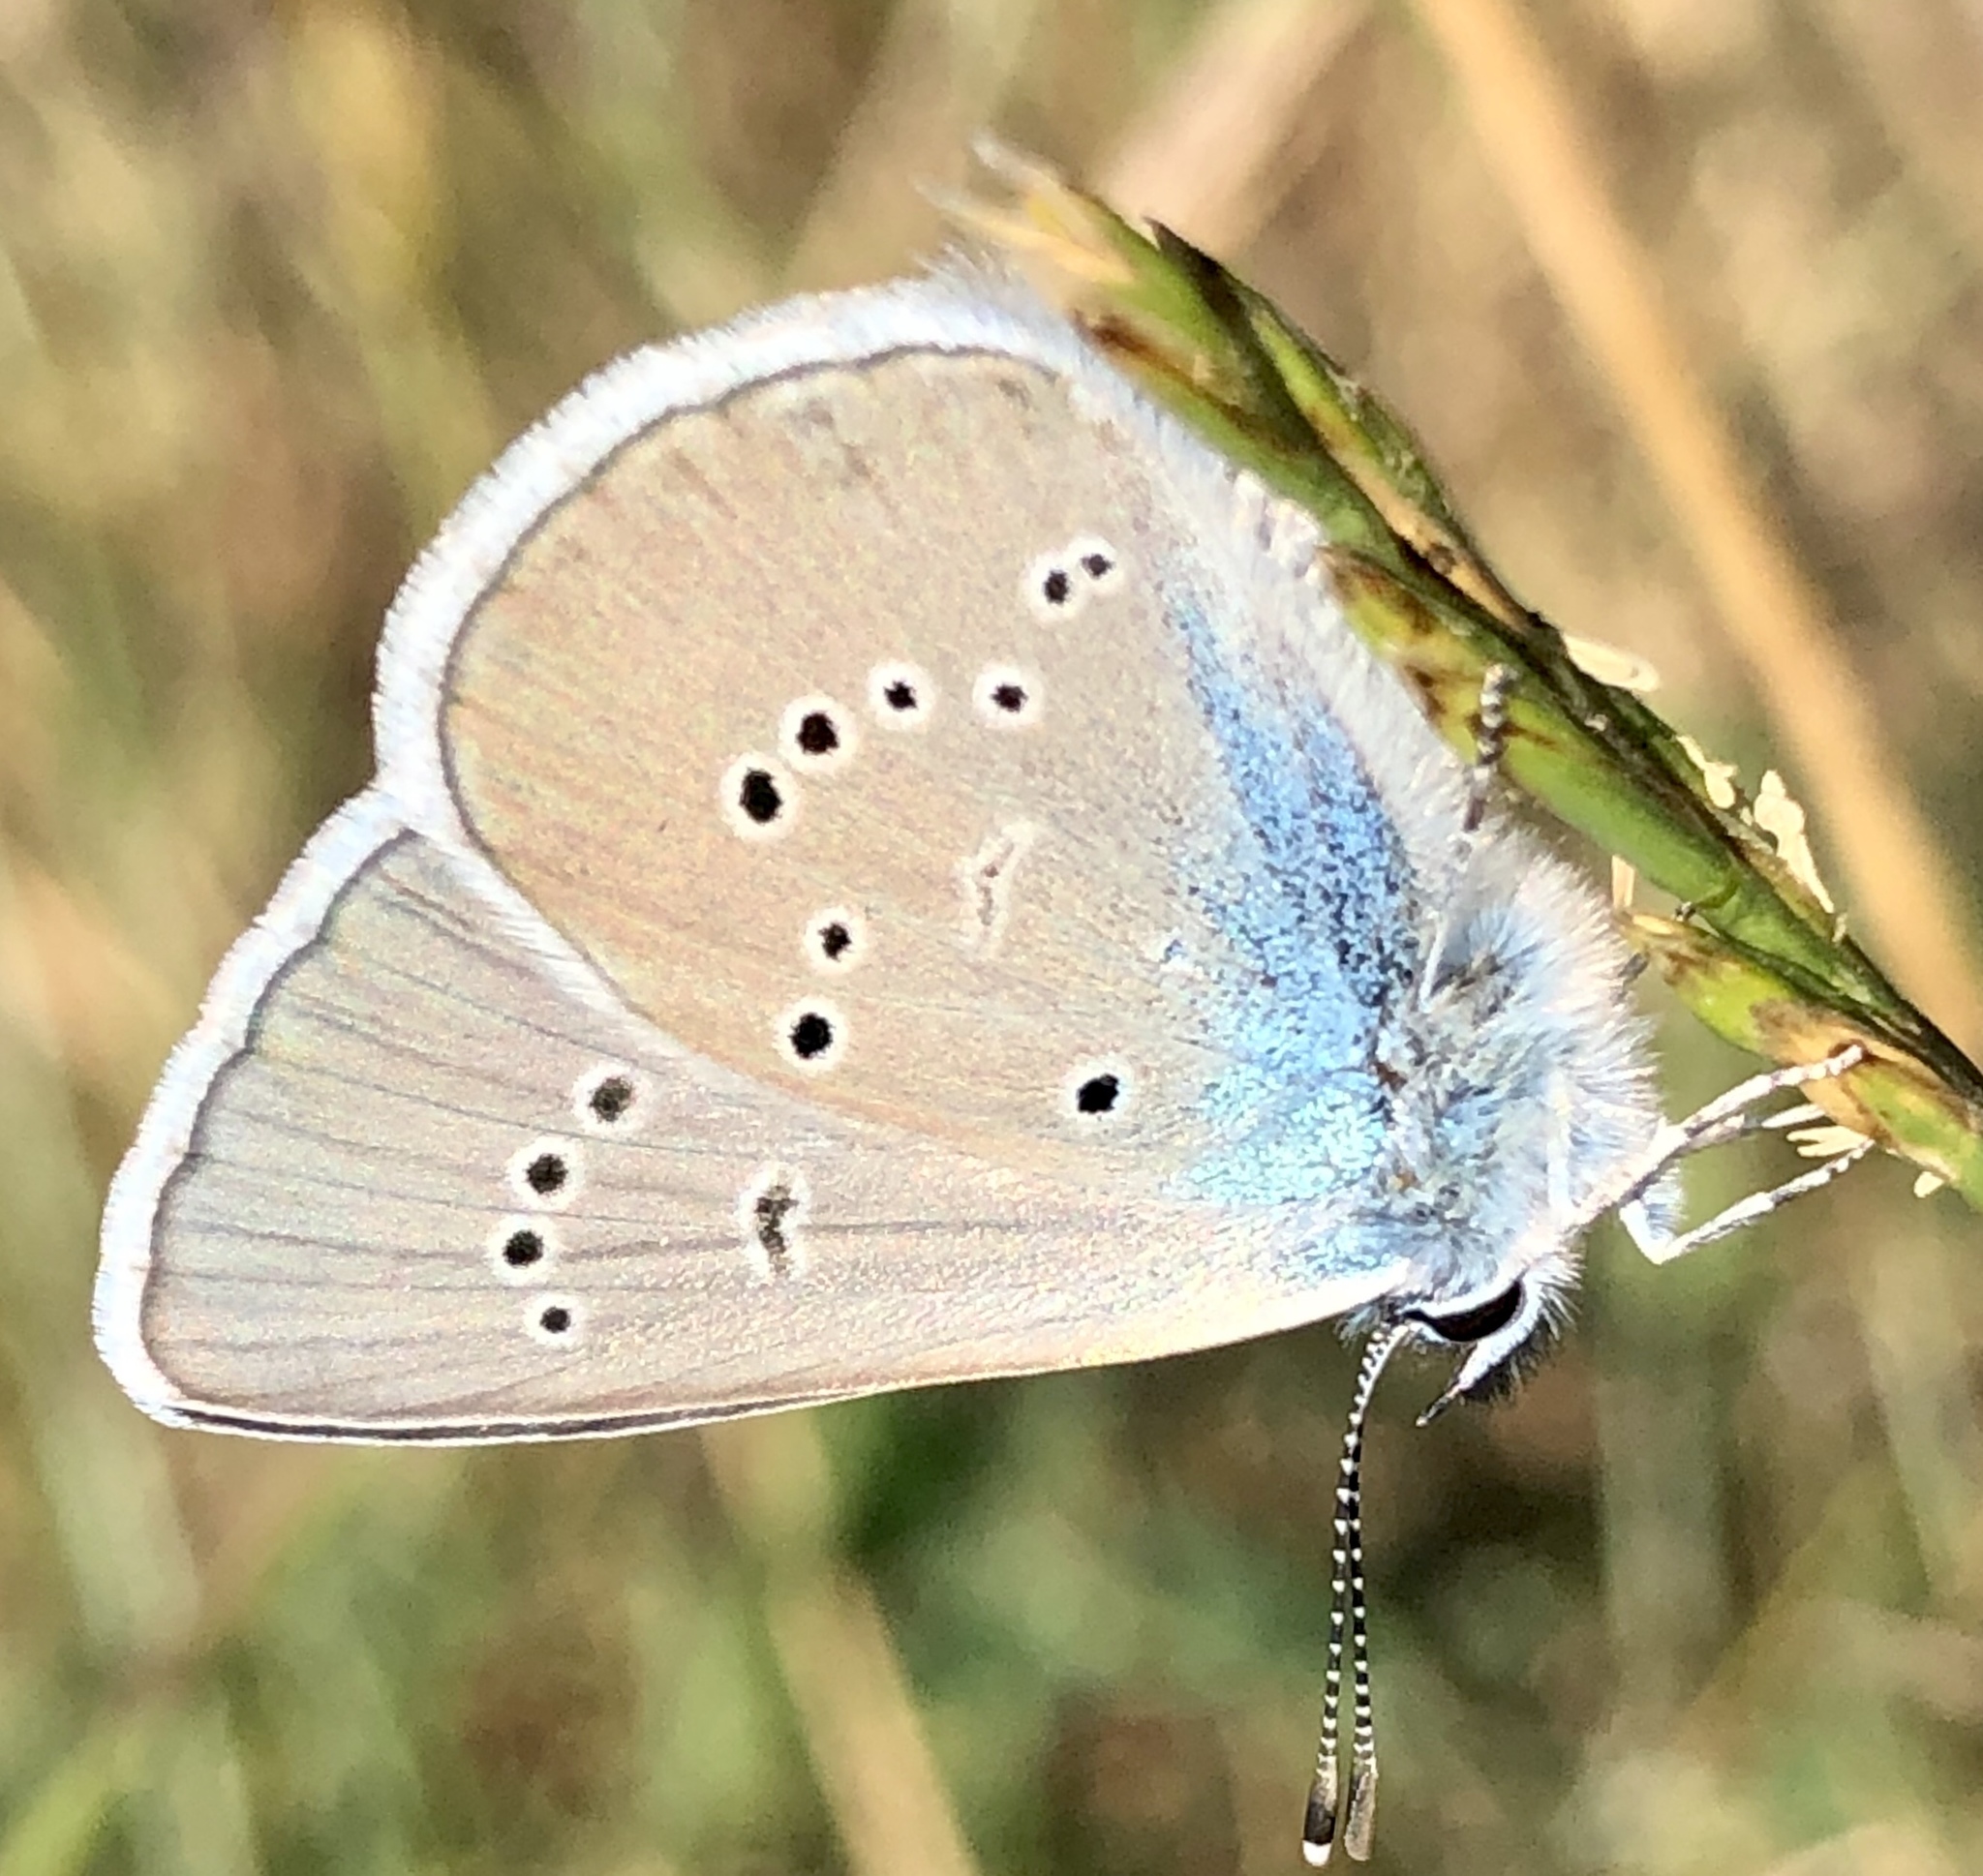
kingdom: Animalia
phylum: Arthropoda
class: Insecta
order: Lepidoptera
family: Lycaenidae
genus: Cyaniris
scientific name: Cyaniris semiargus
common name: Mazarine blue
